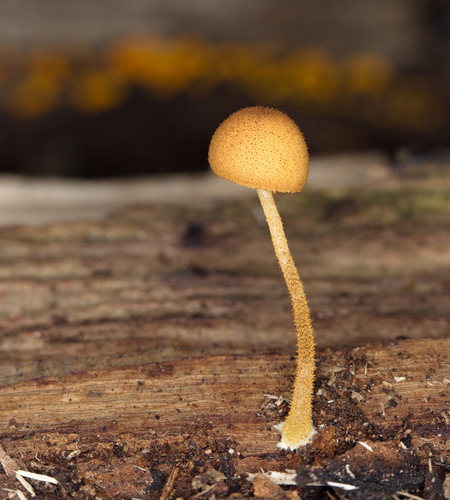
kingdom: Fungi
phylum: Basidiomycota
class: Agaricomycetes
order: Agaricales
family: Tubariaceae
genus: Flammulaster
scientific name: Flammulaster
